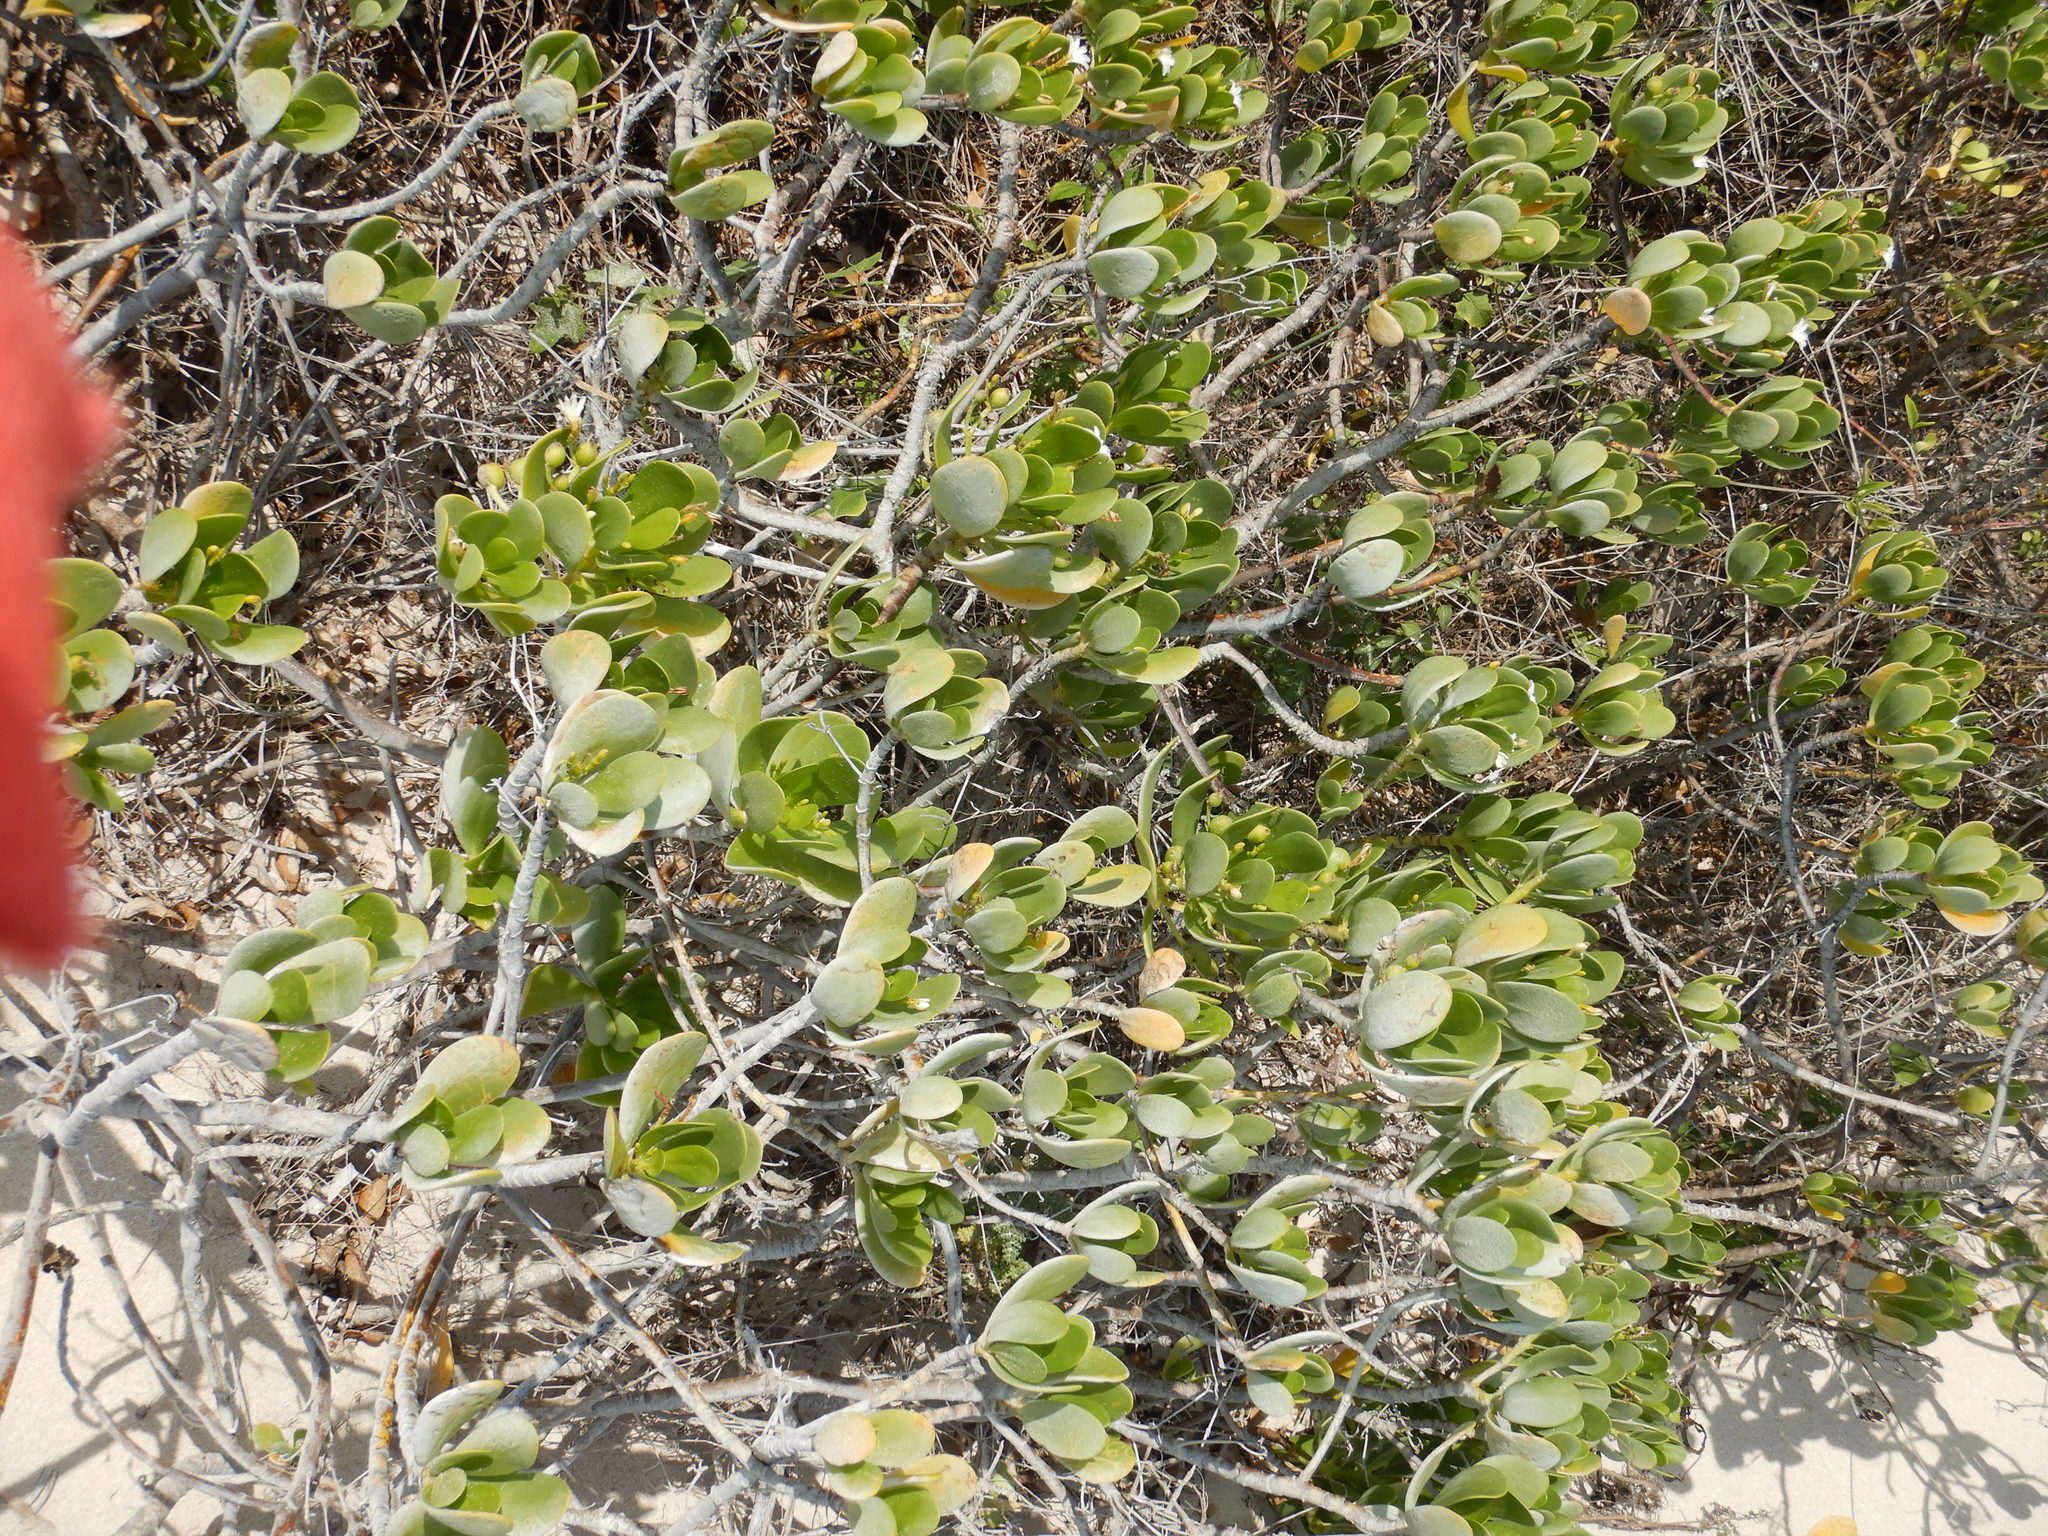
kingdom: Plantae
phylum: Tracheophyta
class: Magnoliopsida
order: Asterales
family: Goodeniaceae
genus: Scaevola
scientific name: Scaevola plumieri
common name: Gull feed
